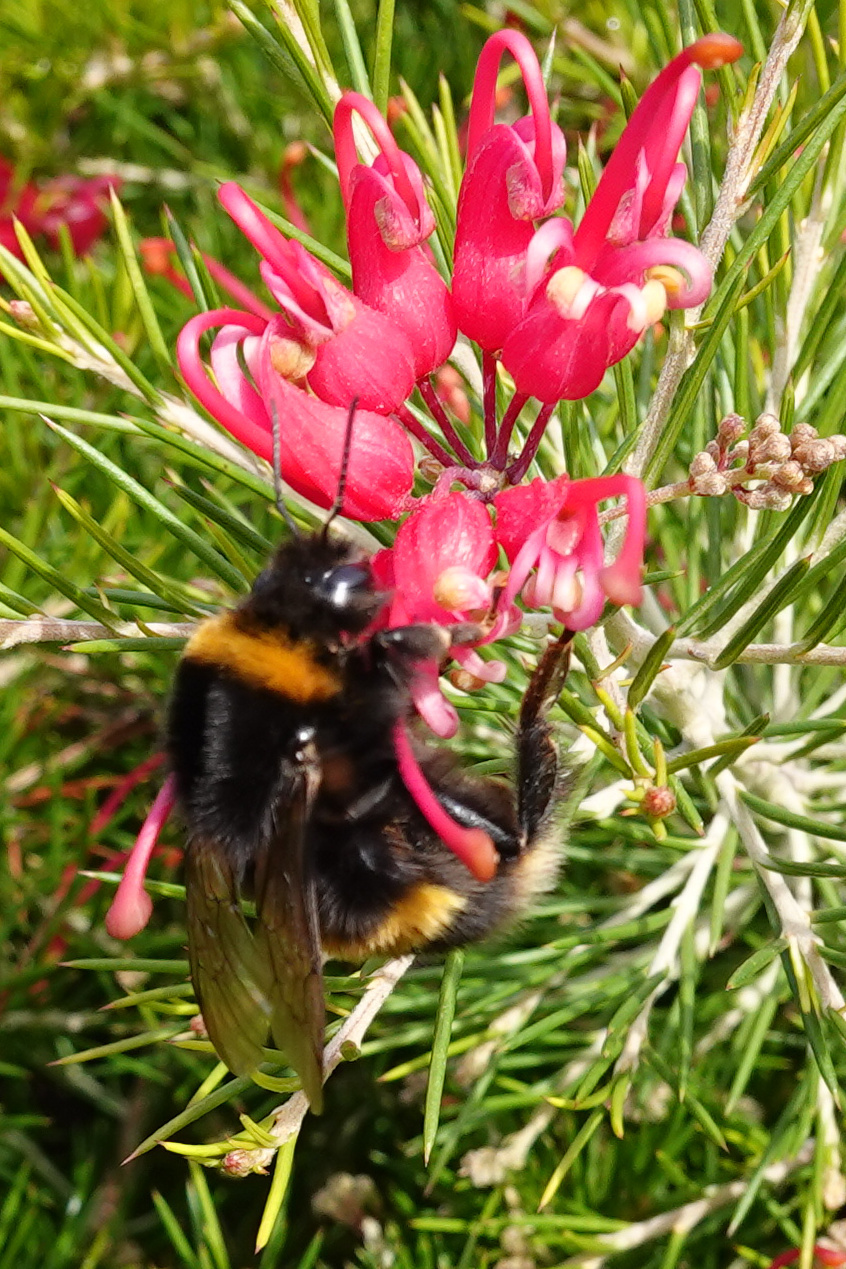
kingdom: Animalia
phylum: Arthropoda
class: Insecta
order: Hymenoptera
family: Apidae
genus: Bombus
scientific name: Bombus terrestris
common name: Buff-tailed bumblebee
